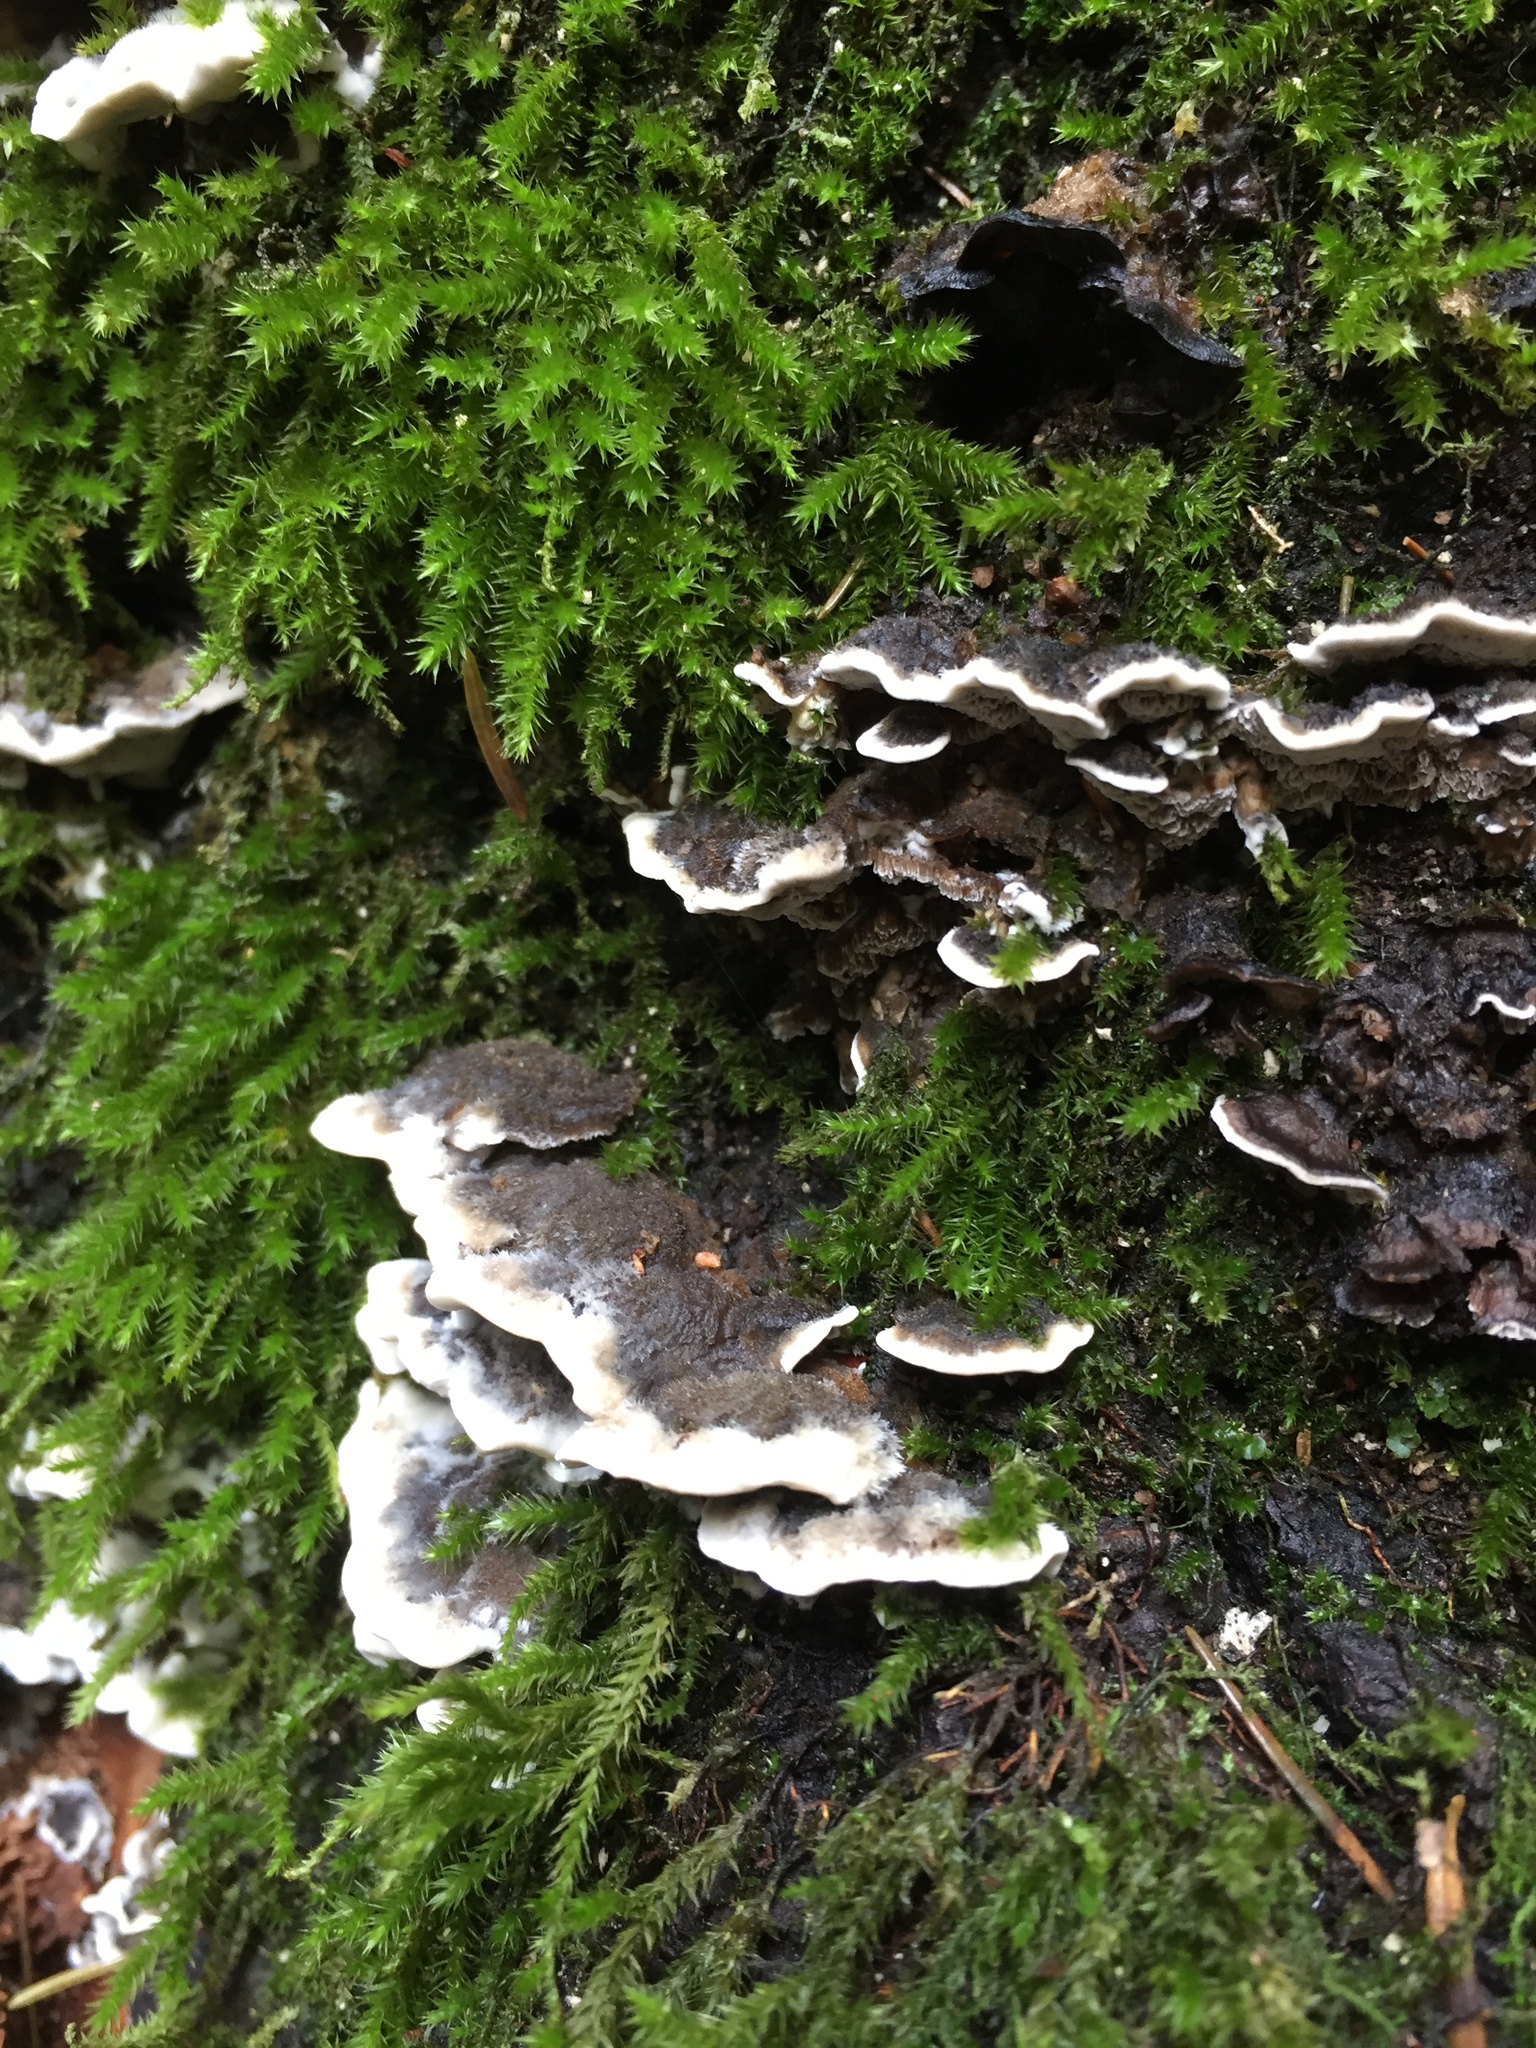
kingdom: Fungi
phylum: Basidiomycota
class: Agaricomycetes
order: Polyporales
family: Phanerochaetaceae
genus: Bjerkandera
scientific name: Bjerkandera adusta
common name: Smoky bracket
